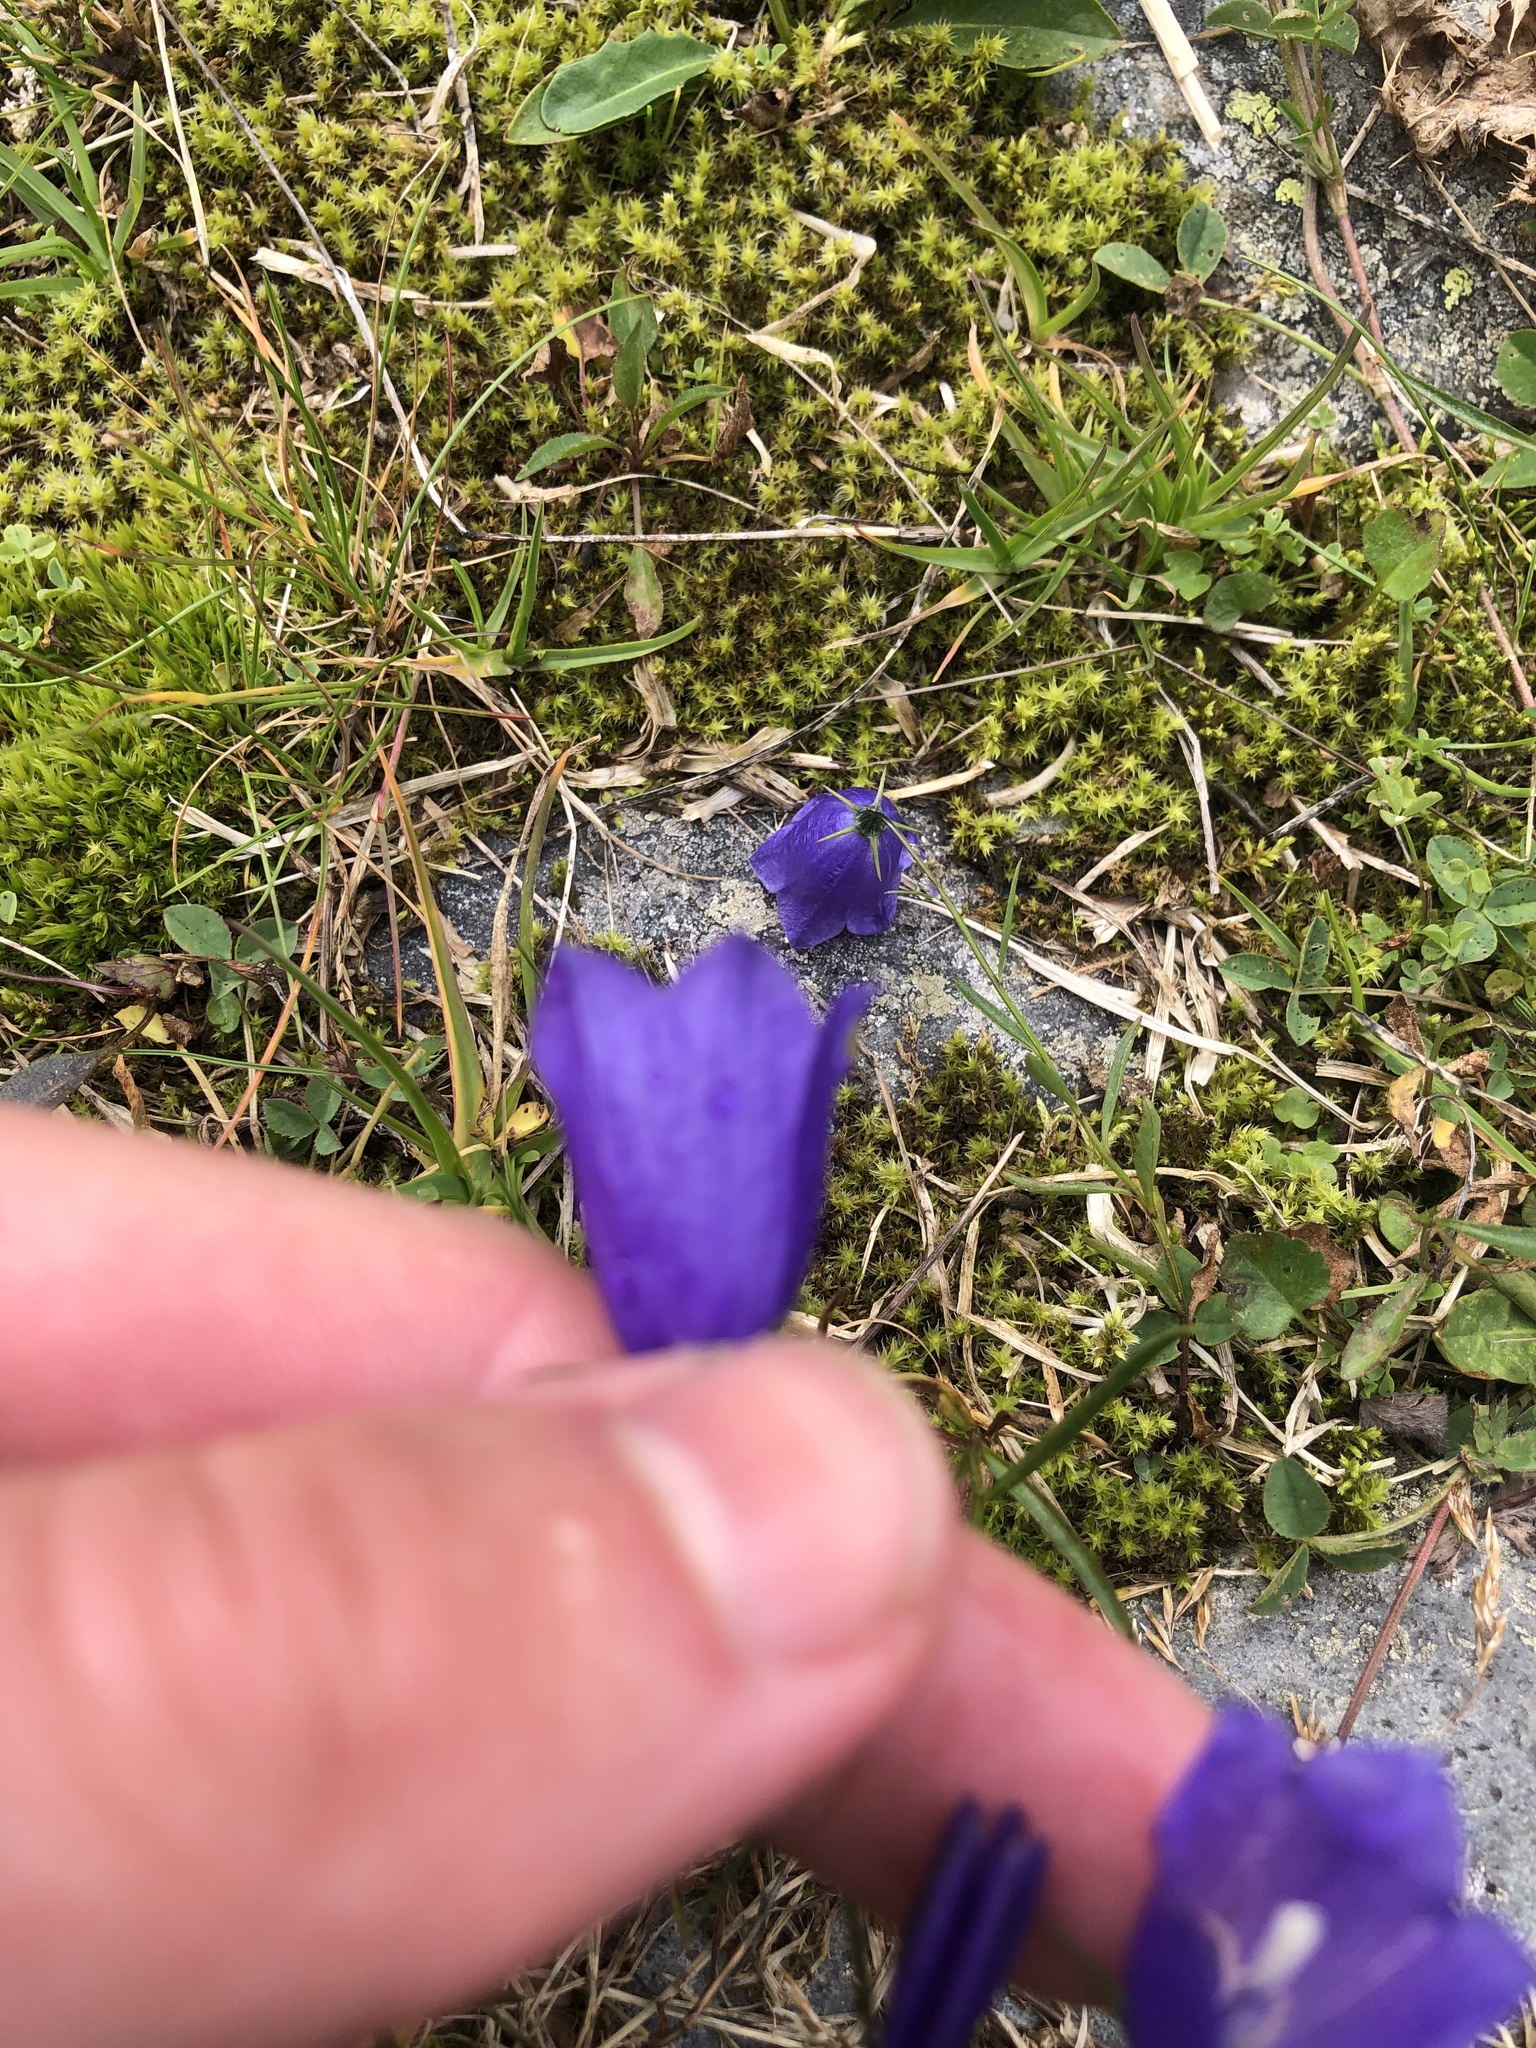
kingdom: Plantae
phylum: Tracheophyta
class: Magnoliopsida
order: Asterales
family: Campanulaceae
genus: Campanula
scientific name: Campanula scheuchzeri
